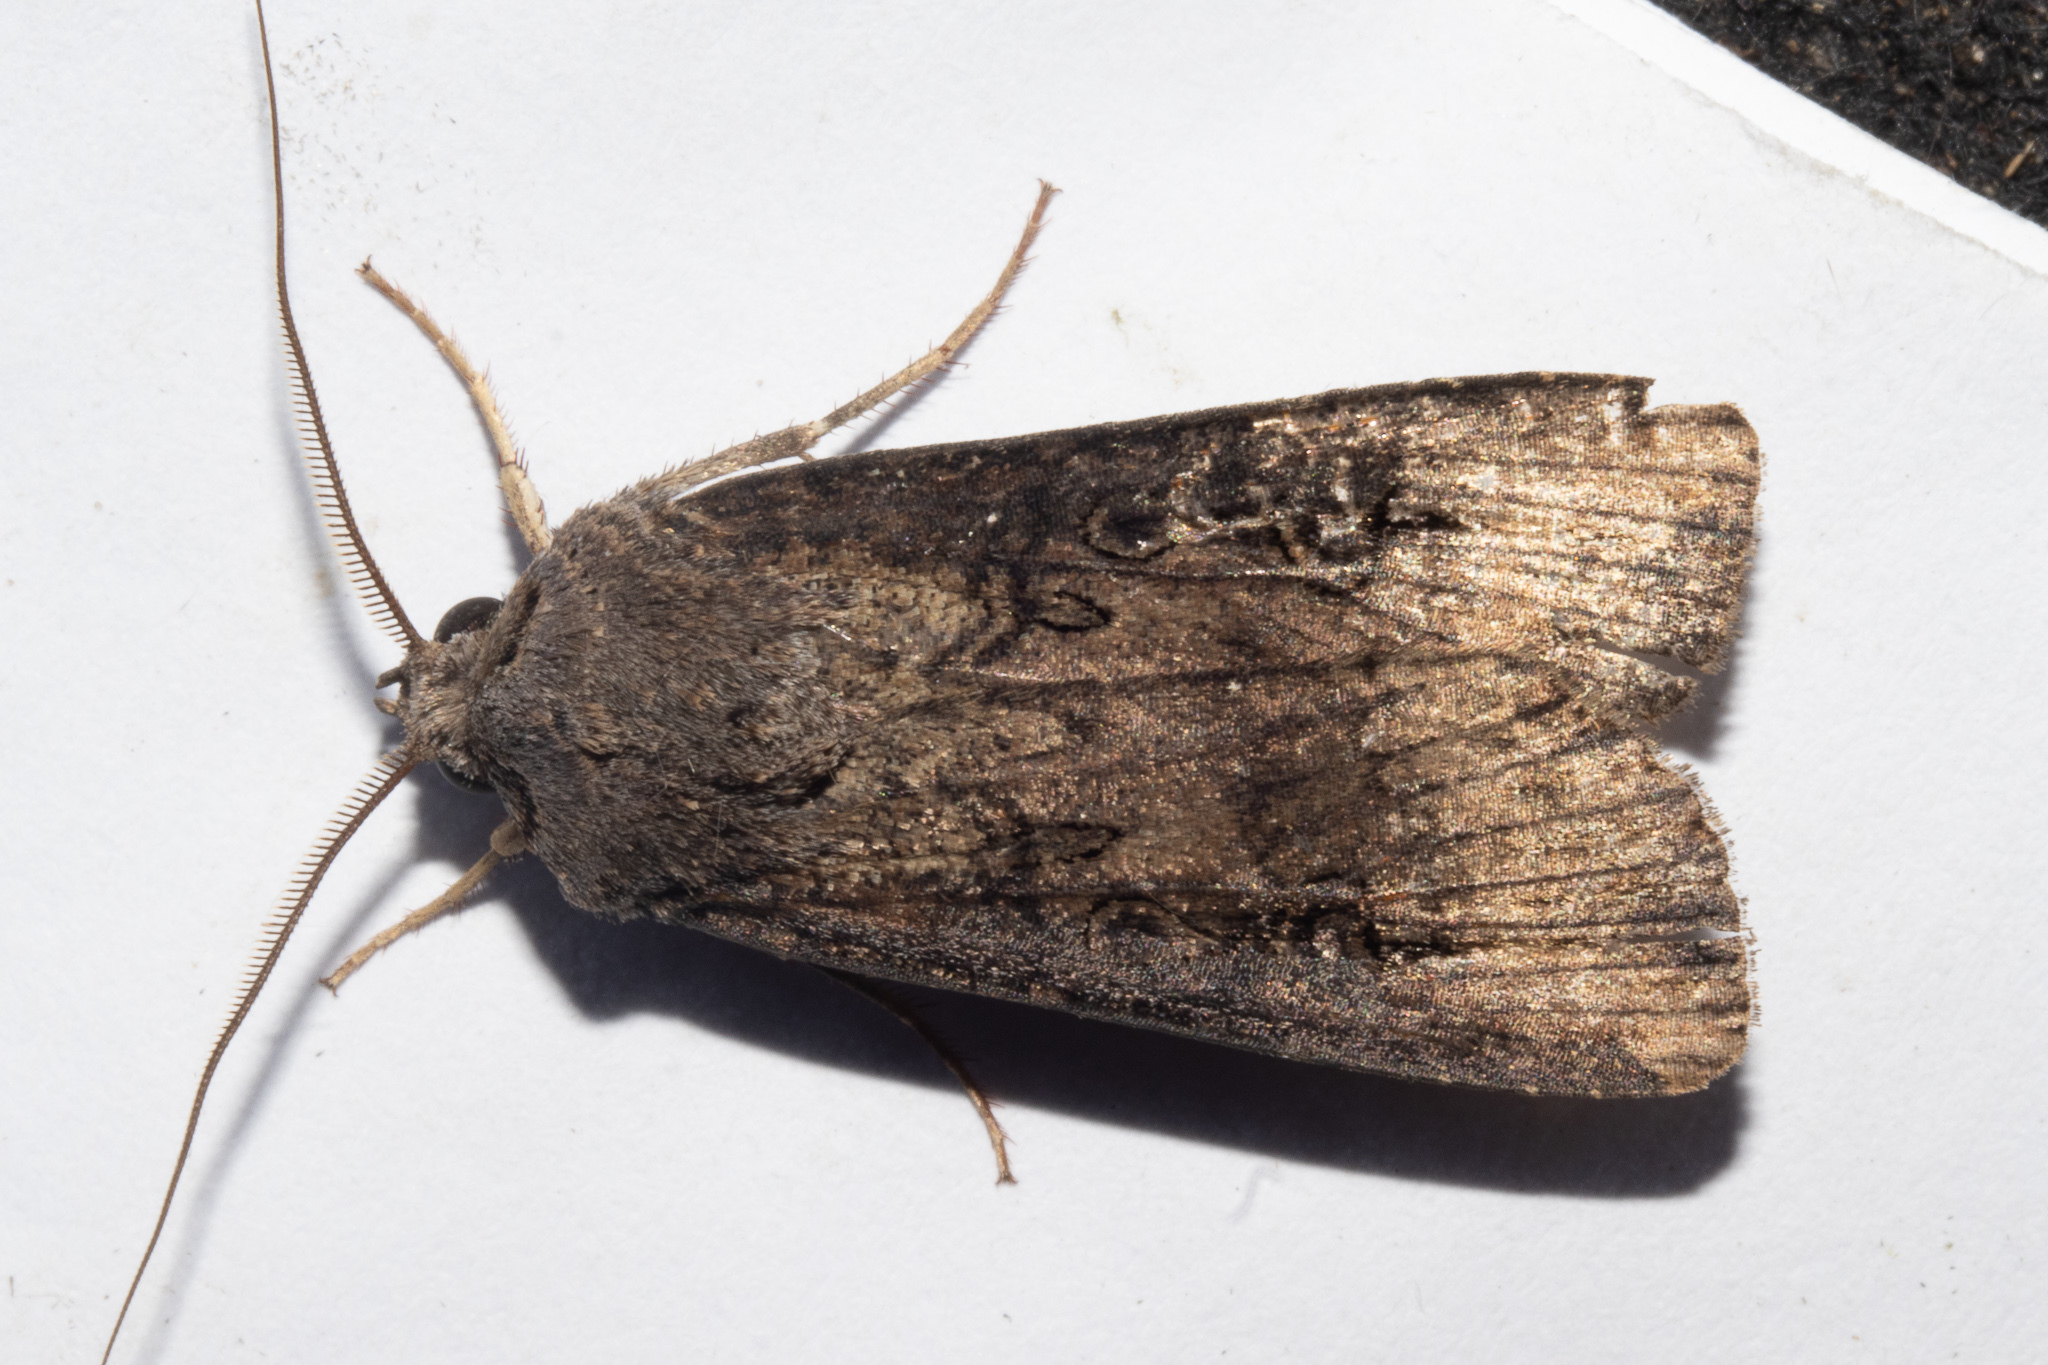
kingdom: Animalia
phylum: Arthropoda
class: Insecta
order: Lepidoptera
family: Noctuidae
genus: Agrotis
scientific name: Agrotis ipsilon
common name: Dark sword-grass
